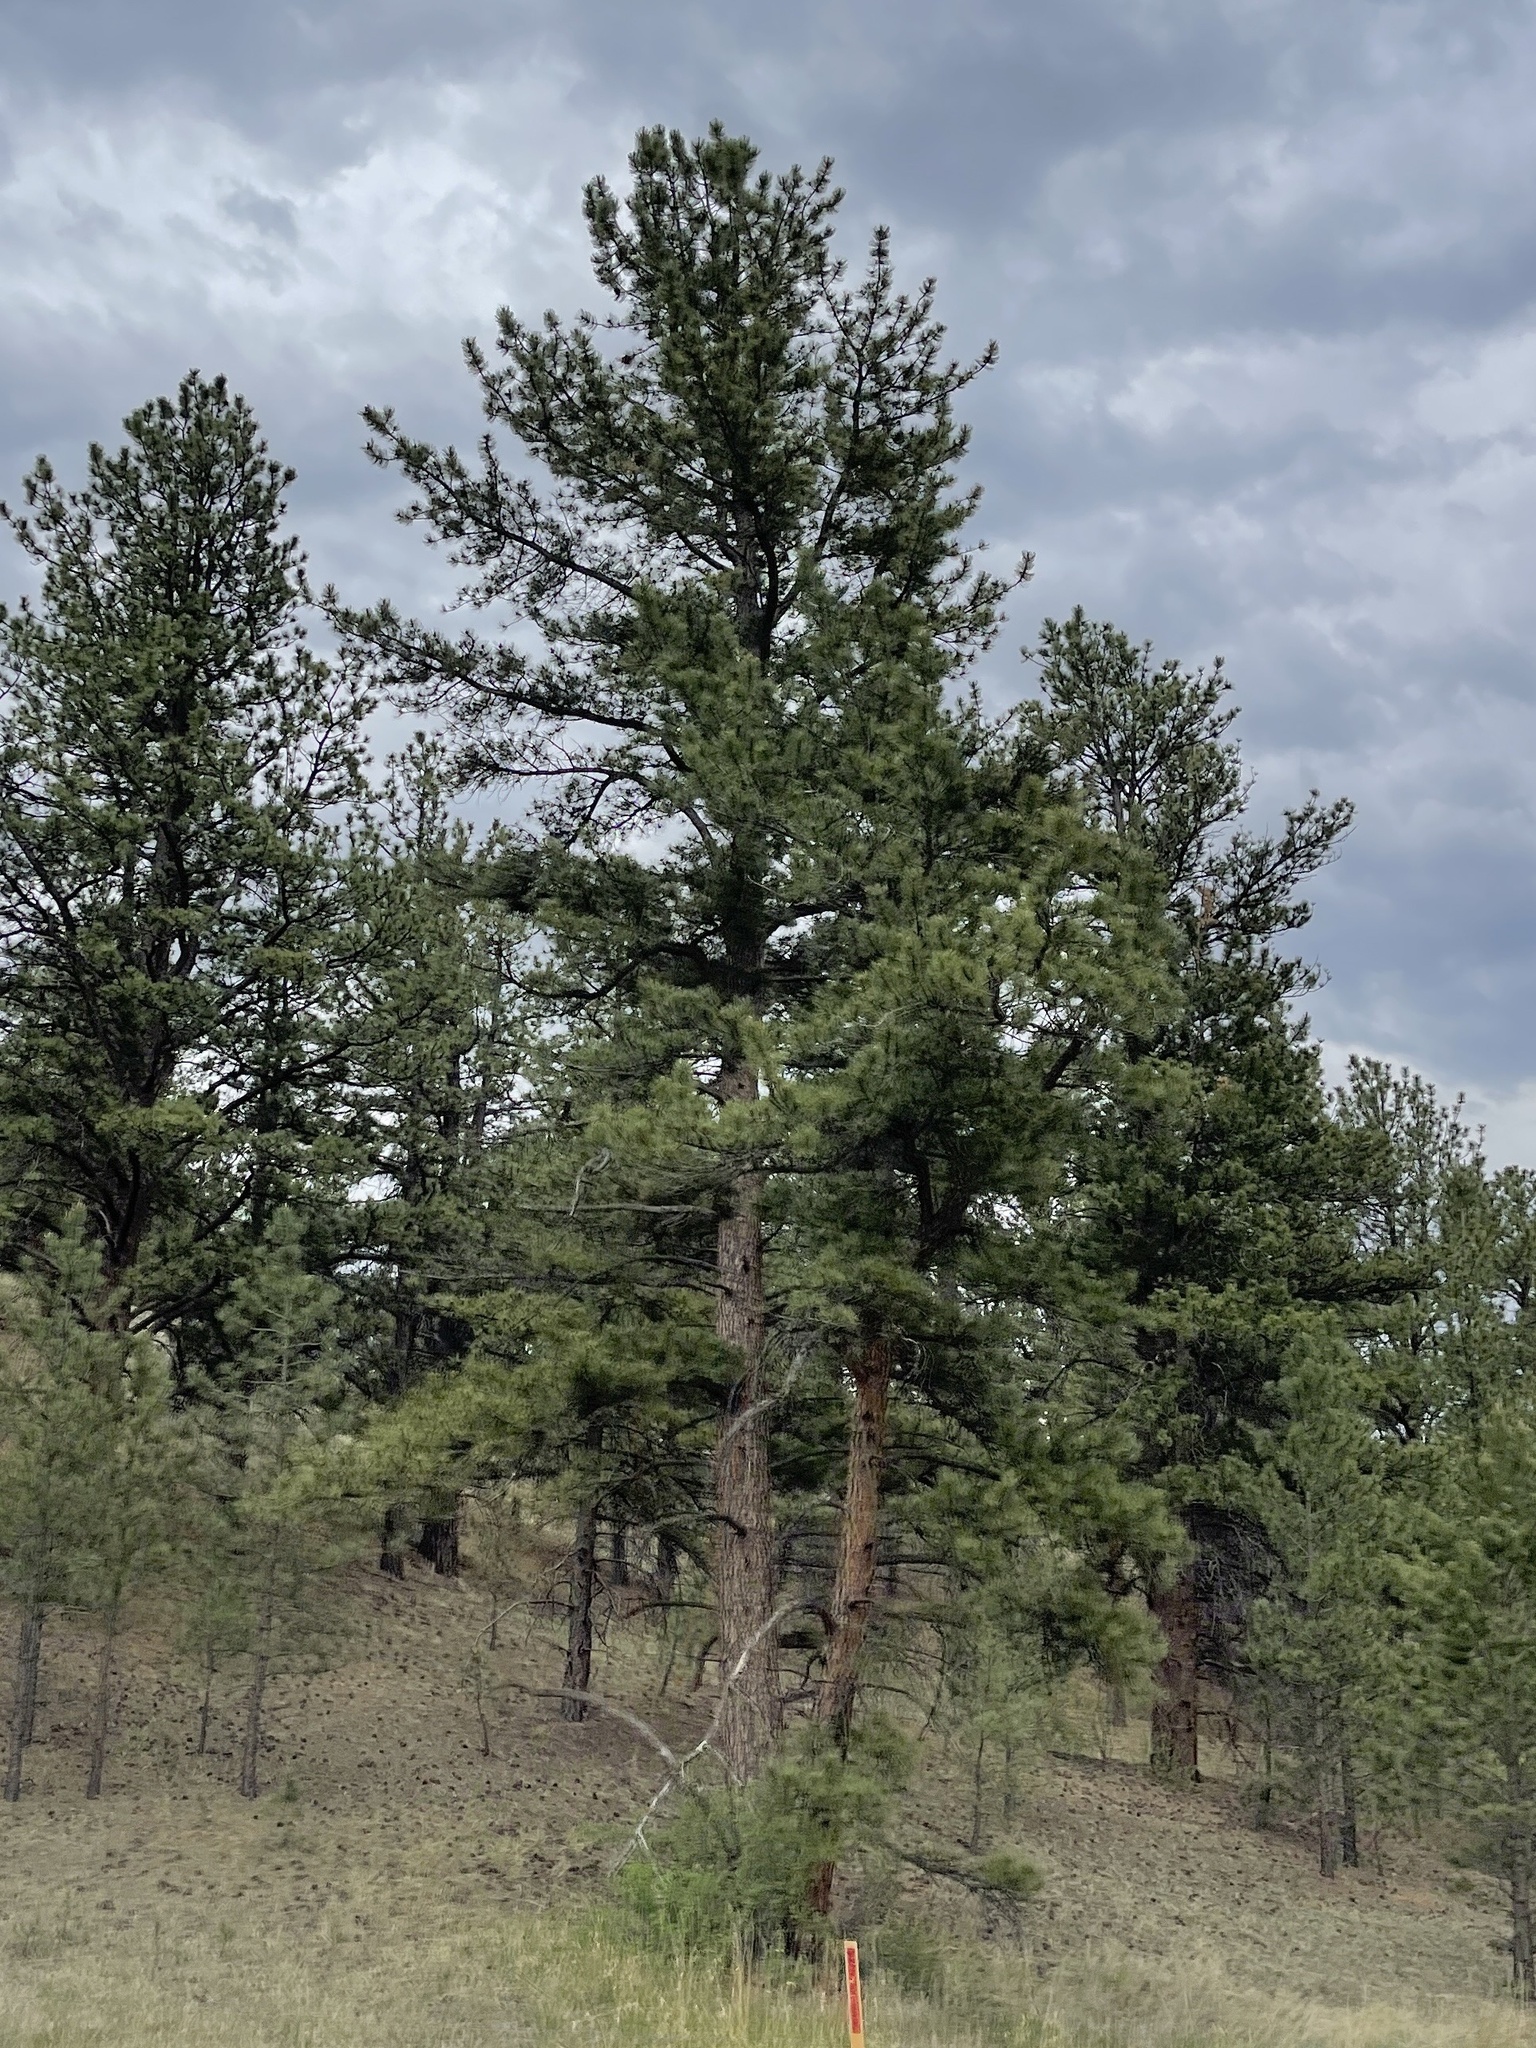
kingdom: Plantae
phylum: Tracheophyta
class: Pinopsida
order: Pinales
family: Pinaceae
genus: Pinus
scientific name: Pinus ponderosa
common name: Western yellow-pine
